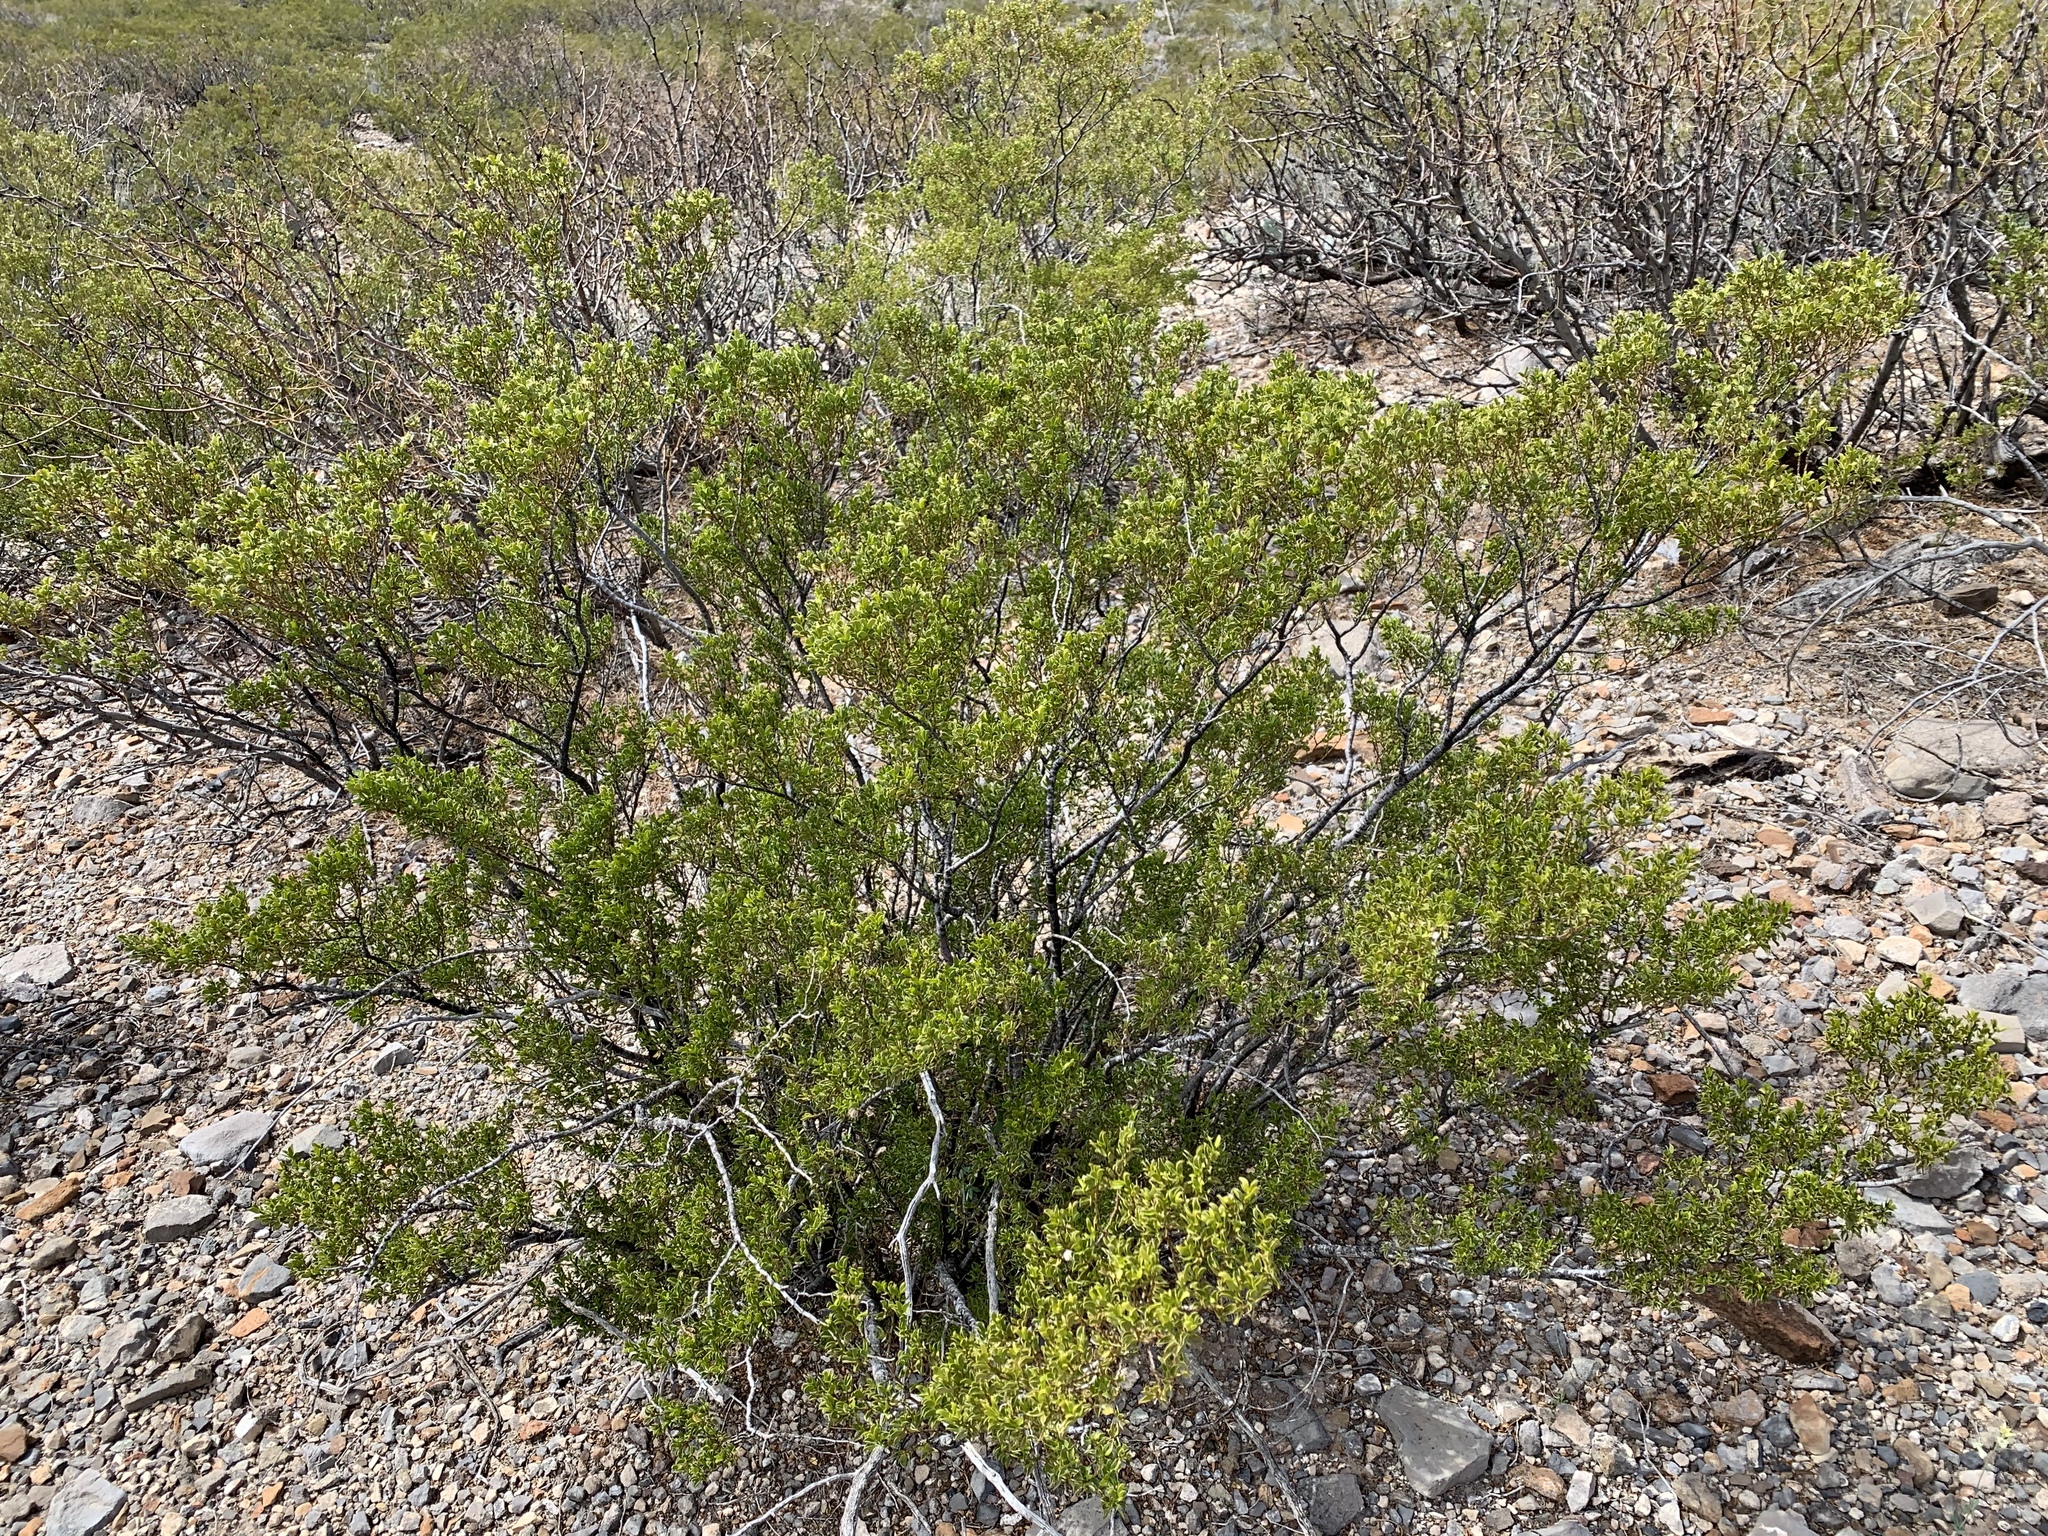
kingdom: Plantae
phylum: Tracheophyta
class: Magnoliopsida
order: Zygophyllales
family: Zygophyllaceae
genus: Larrea
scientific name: Larrea tridentata
